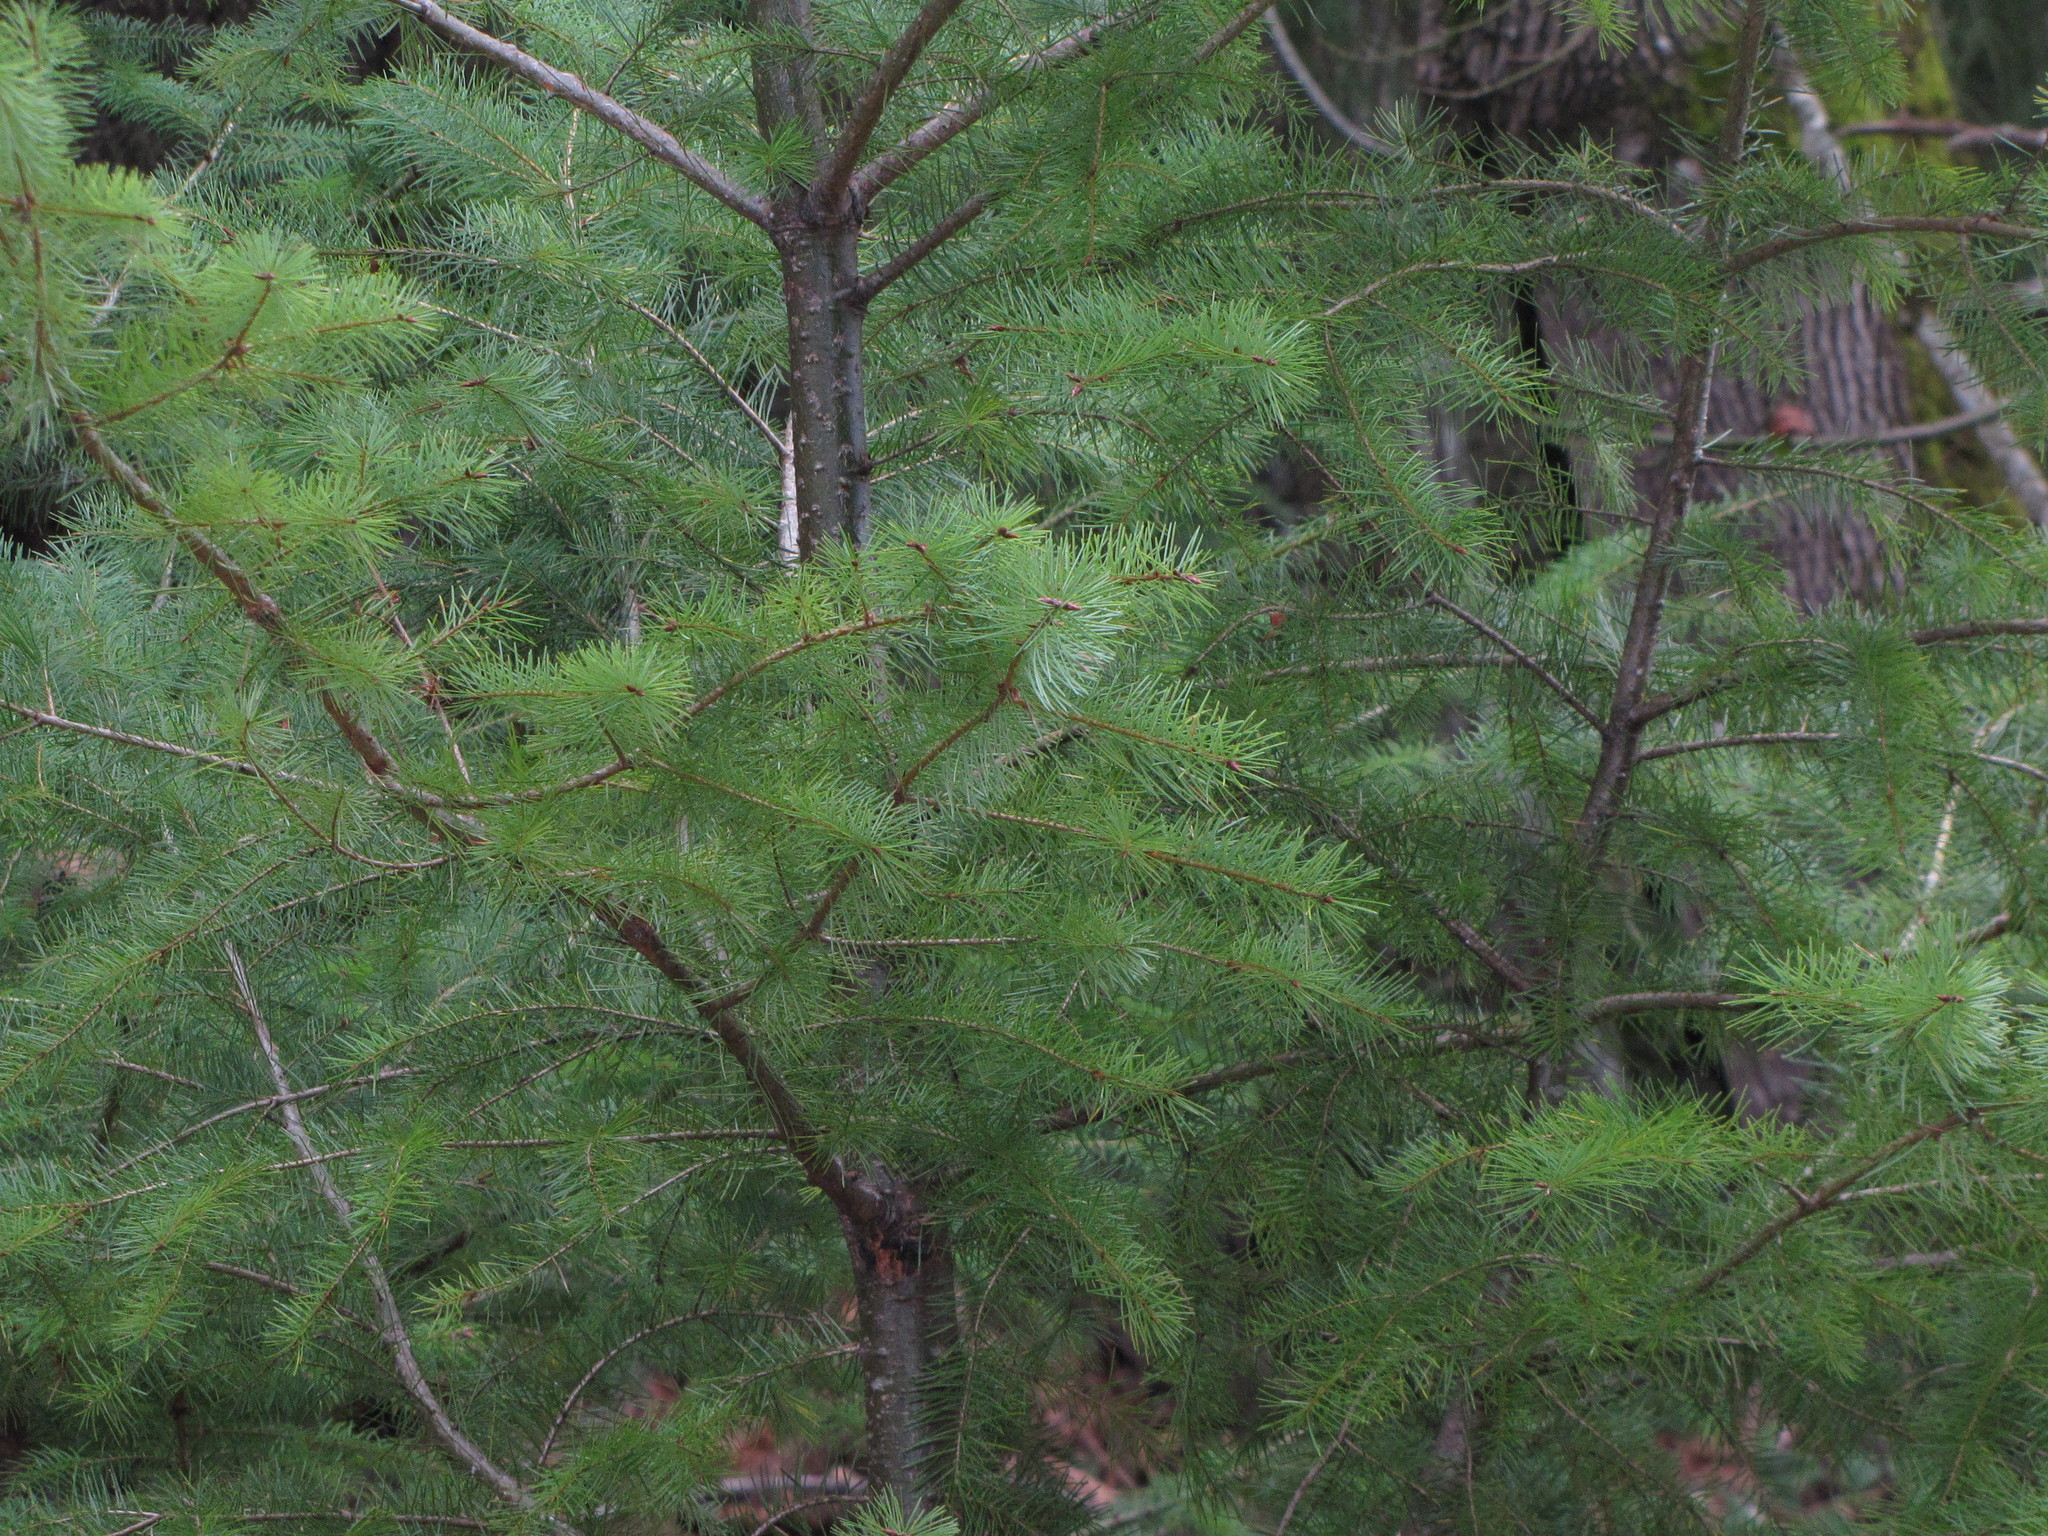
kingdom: Plantae
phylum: Tracheophyta
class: Pinopsida
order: Pinales
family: Pinaceae
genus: Pseudotsuga
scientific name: Pseudotsuga menziesii
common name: Douglas fir
